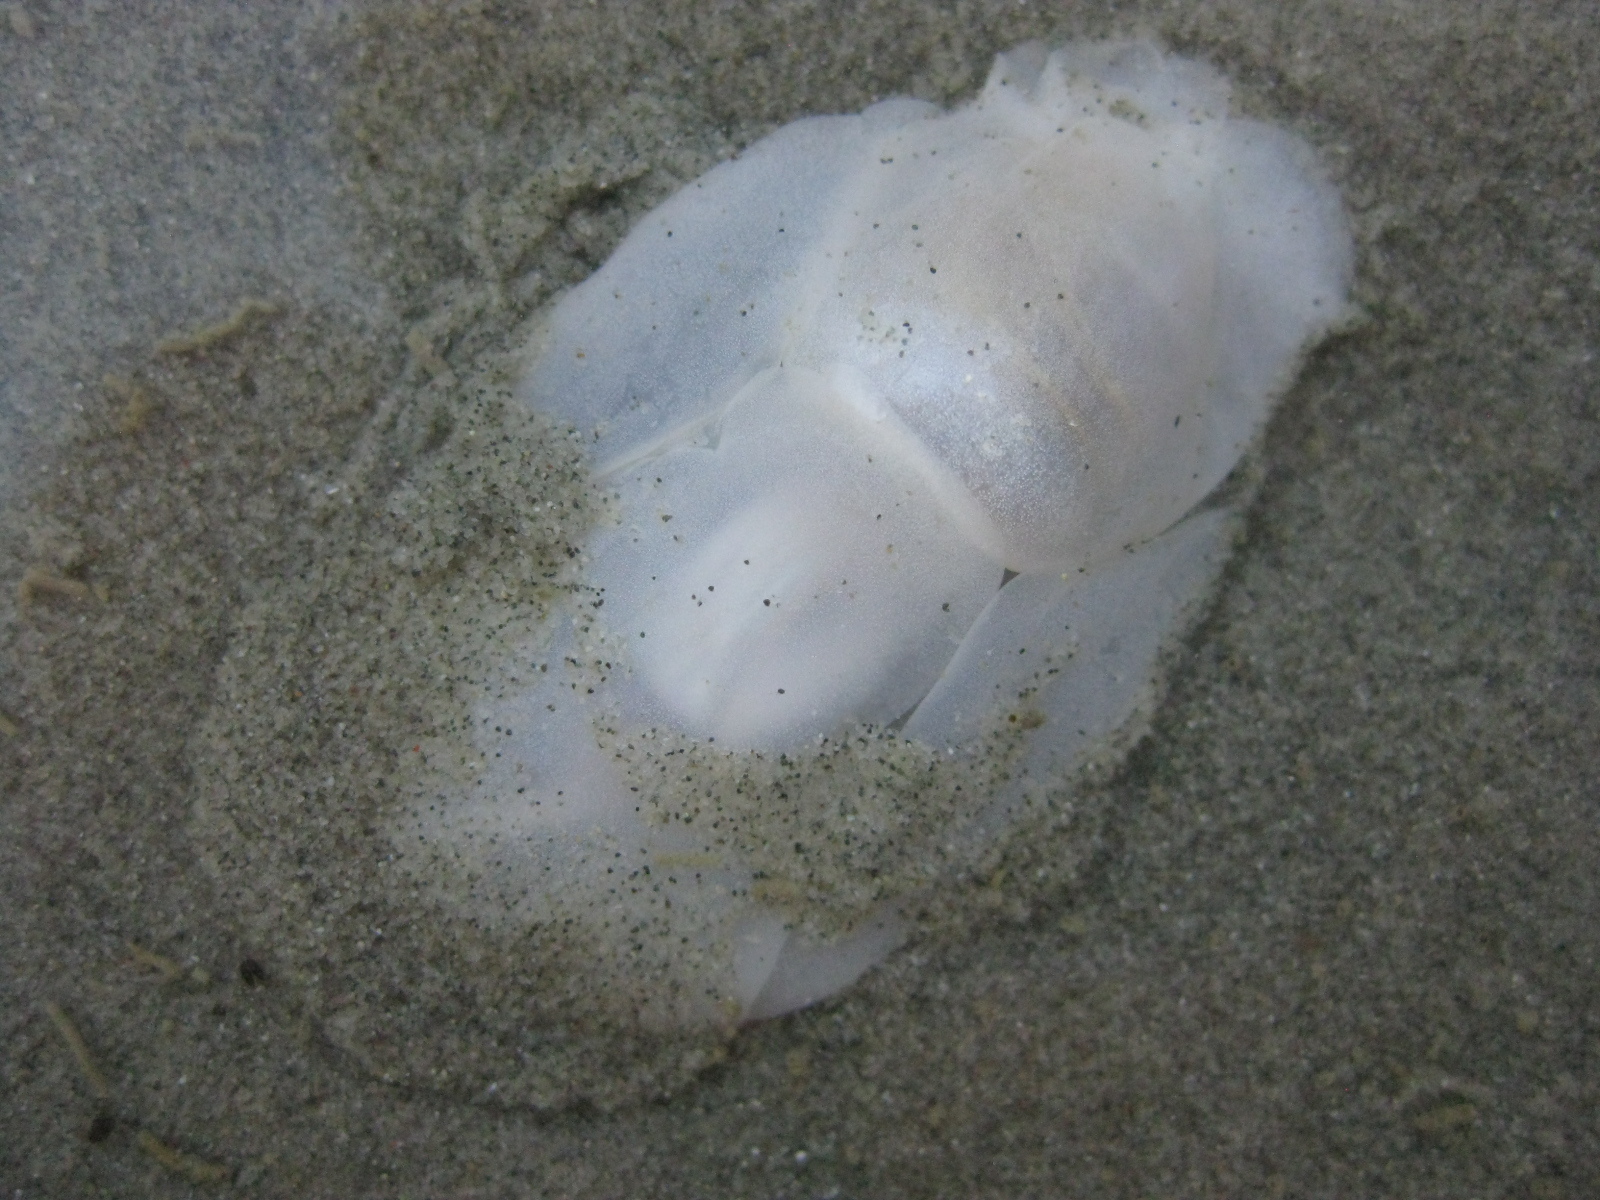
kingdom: Animalia
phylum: Mollusca
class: Gastropoda
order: Cephalaspidea
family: Philinidae
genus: Philine
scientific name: Philine
